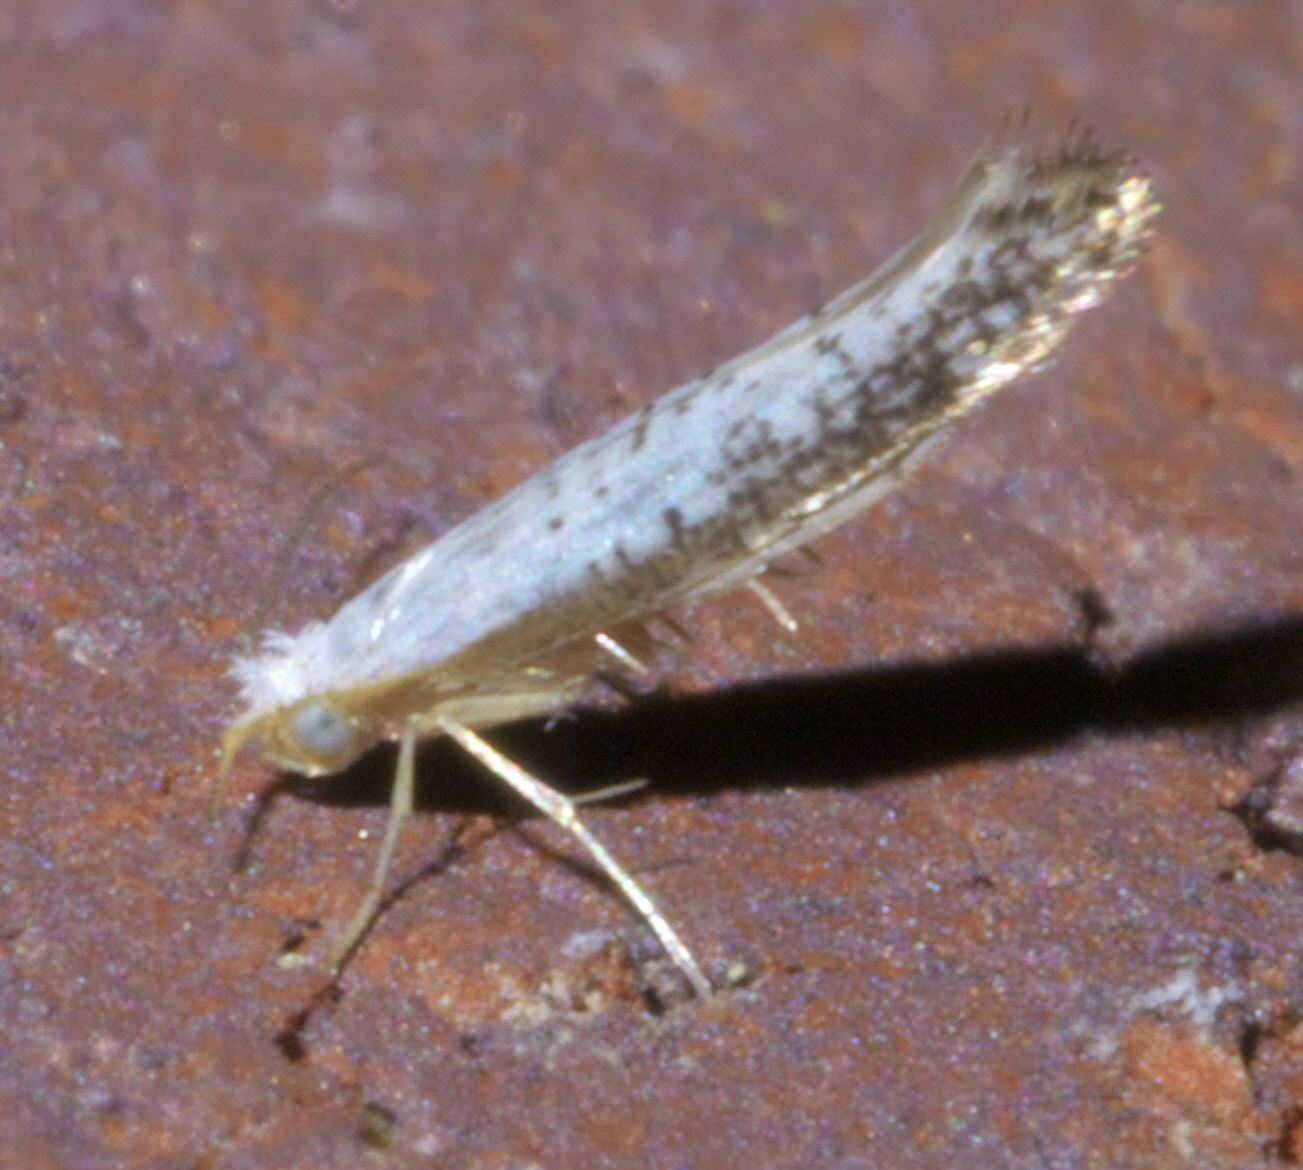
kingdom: Animalia
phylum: Arthropoda
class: Insecta
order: Lepidoptera
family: Argyresthiidae
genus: Argyresthia
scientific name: Argyresthia subreticulata
